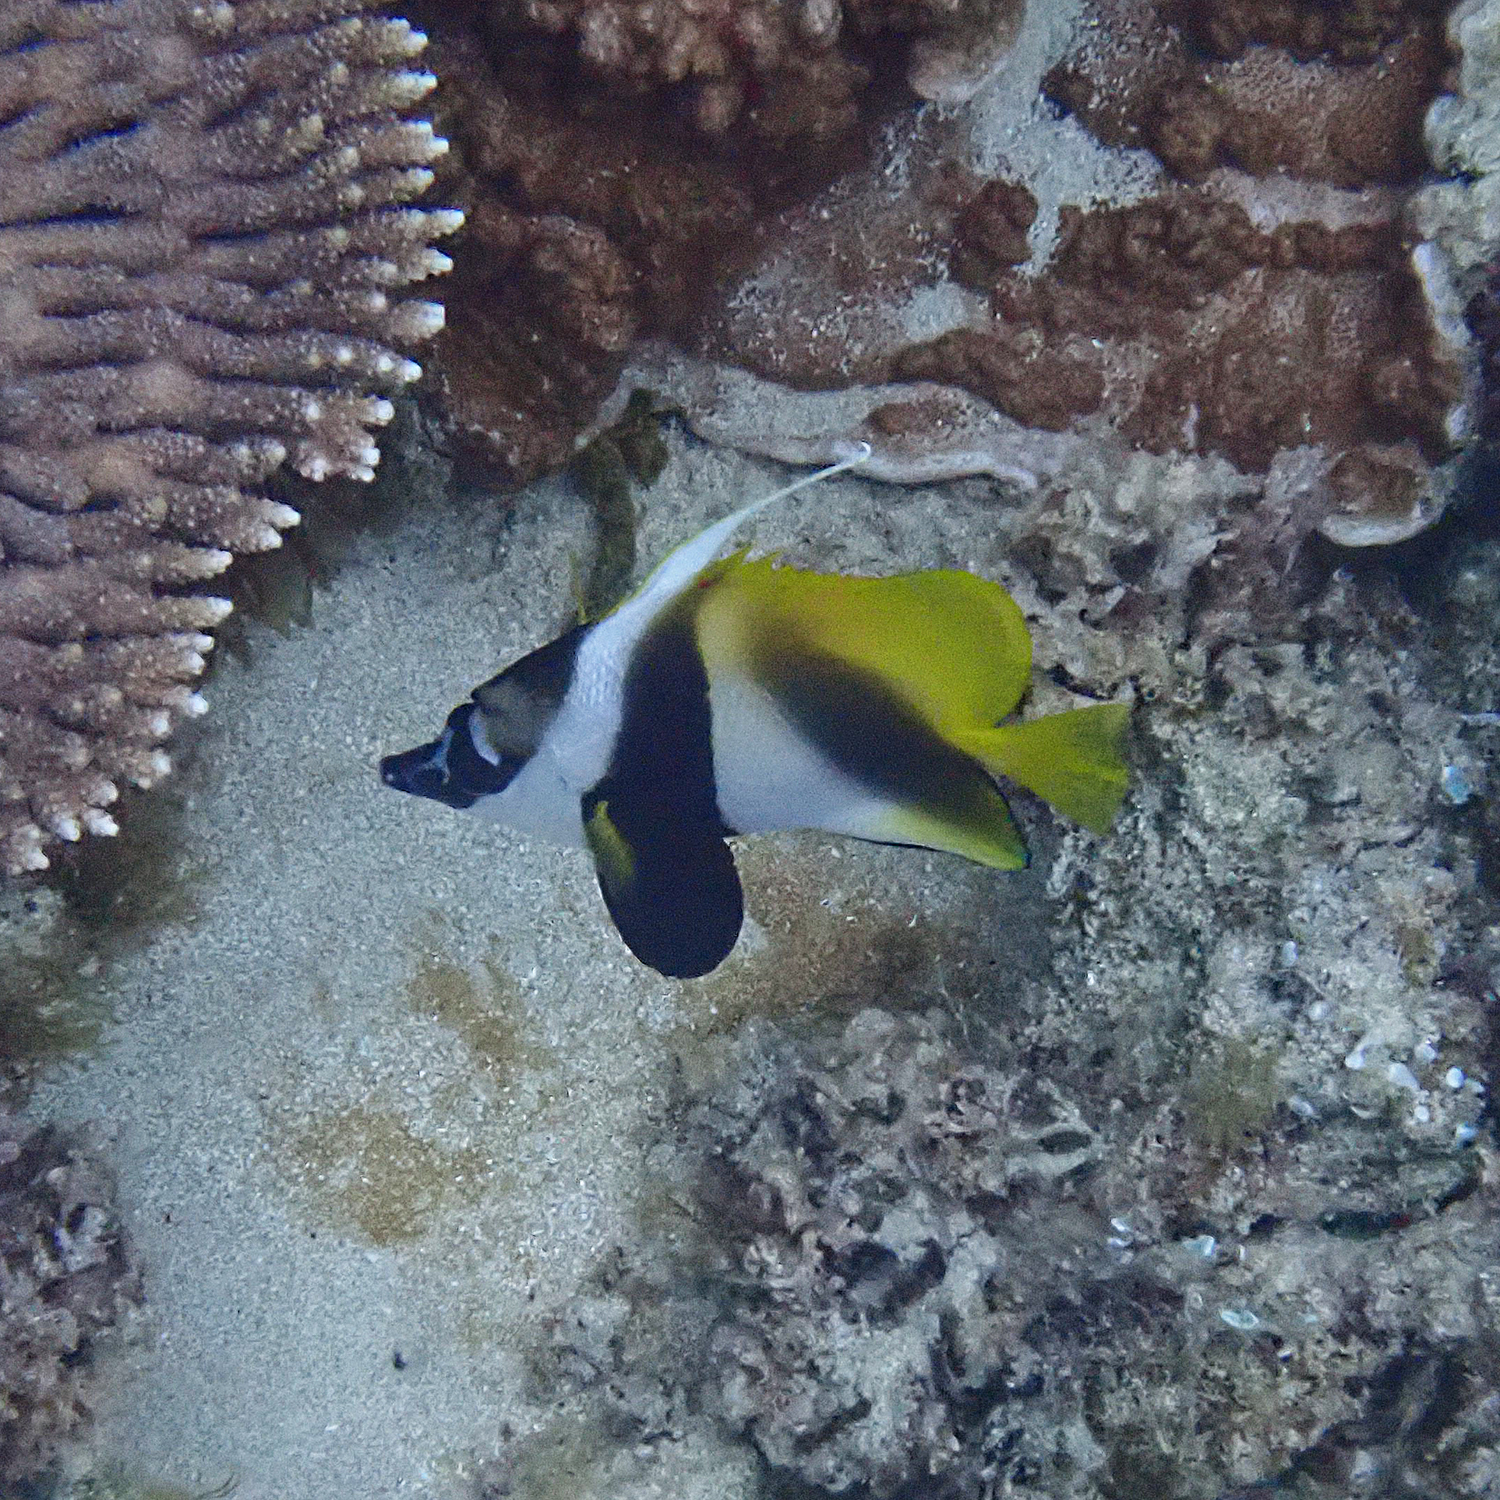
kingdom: Animalia
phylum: Chordata
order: Perciformes
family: Chaetodontidae
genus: Heniochus
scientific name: Heniochus monoceros
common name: Masked bannerfish
